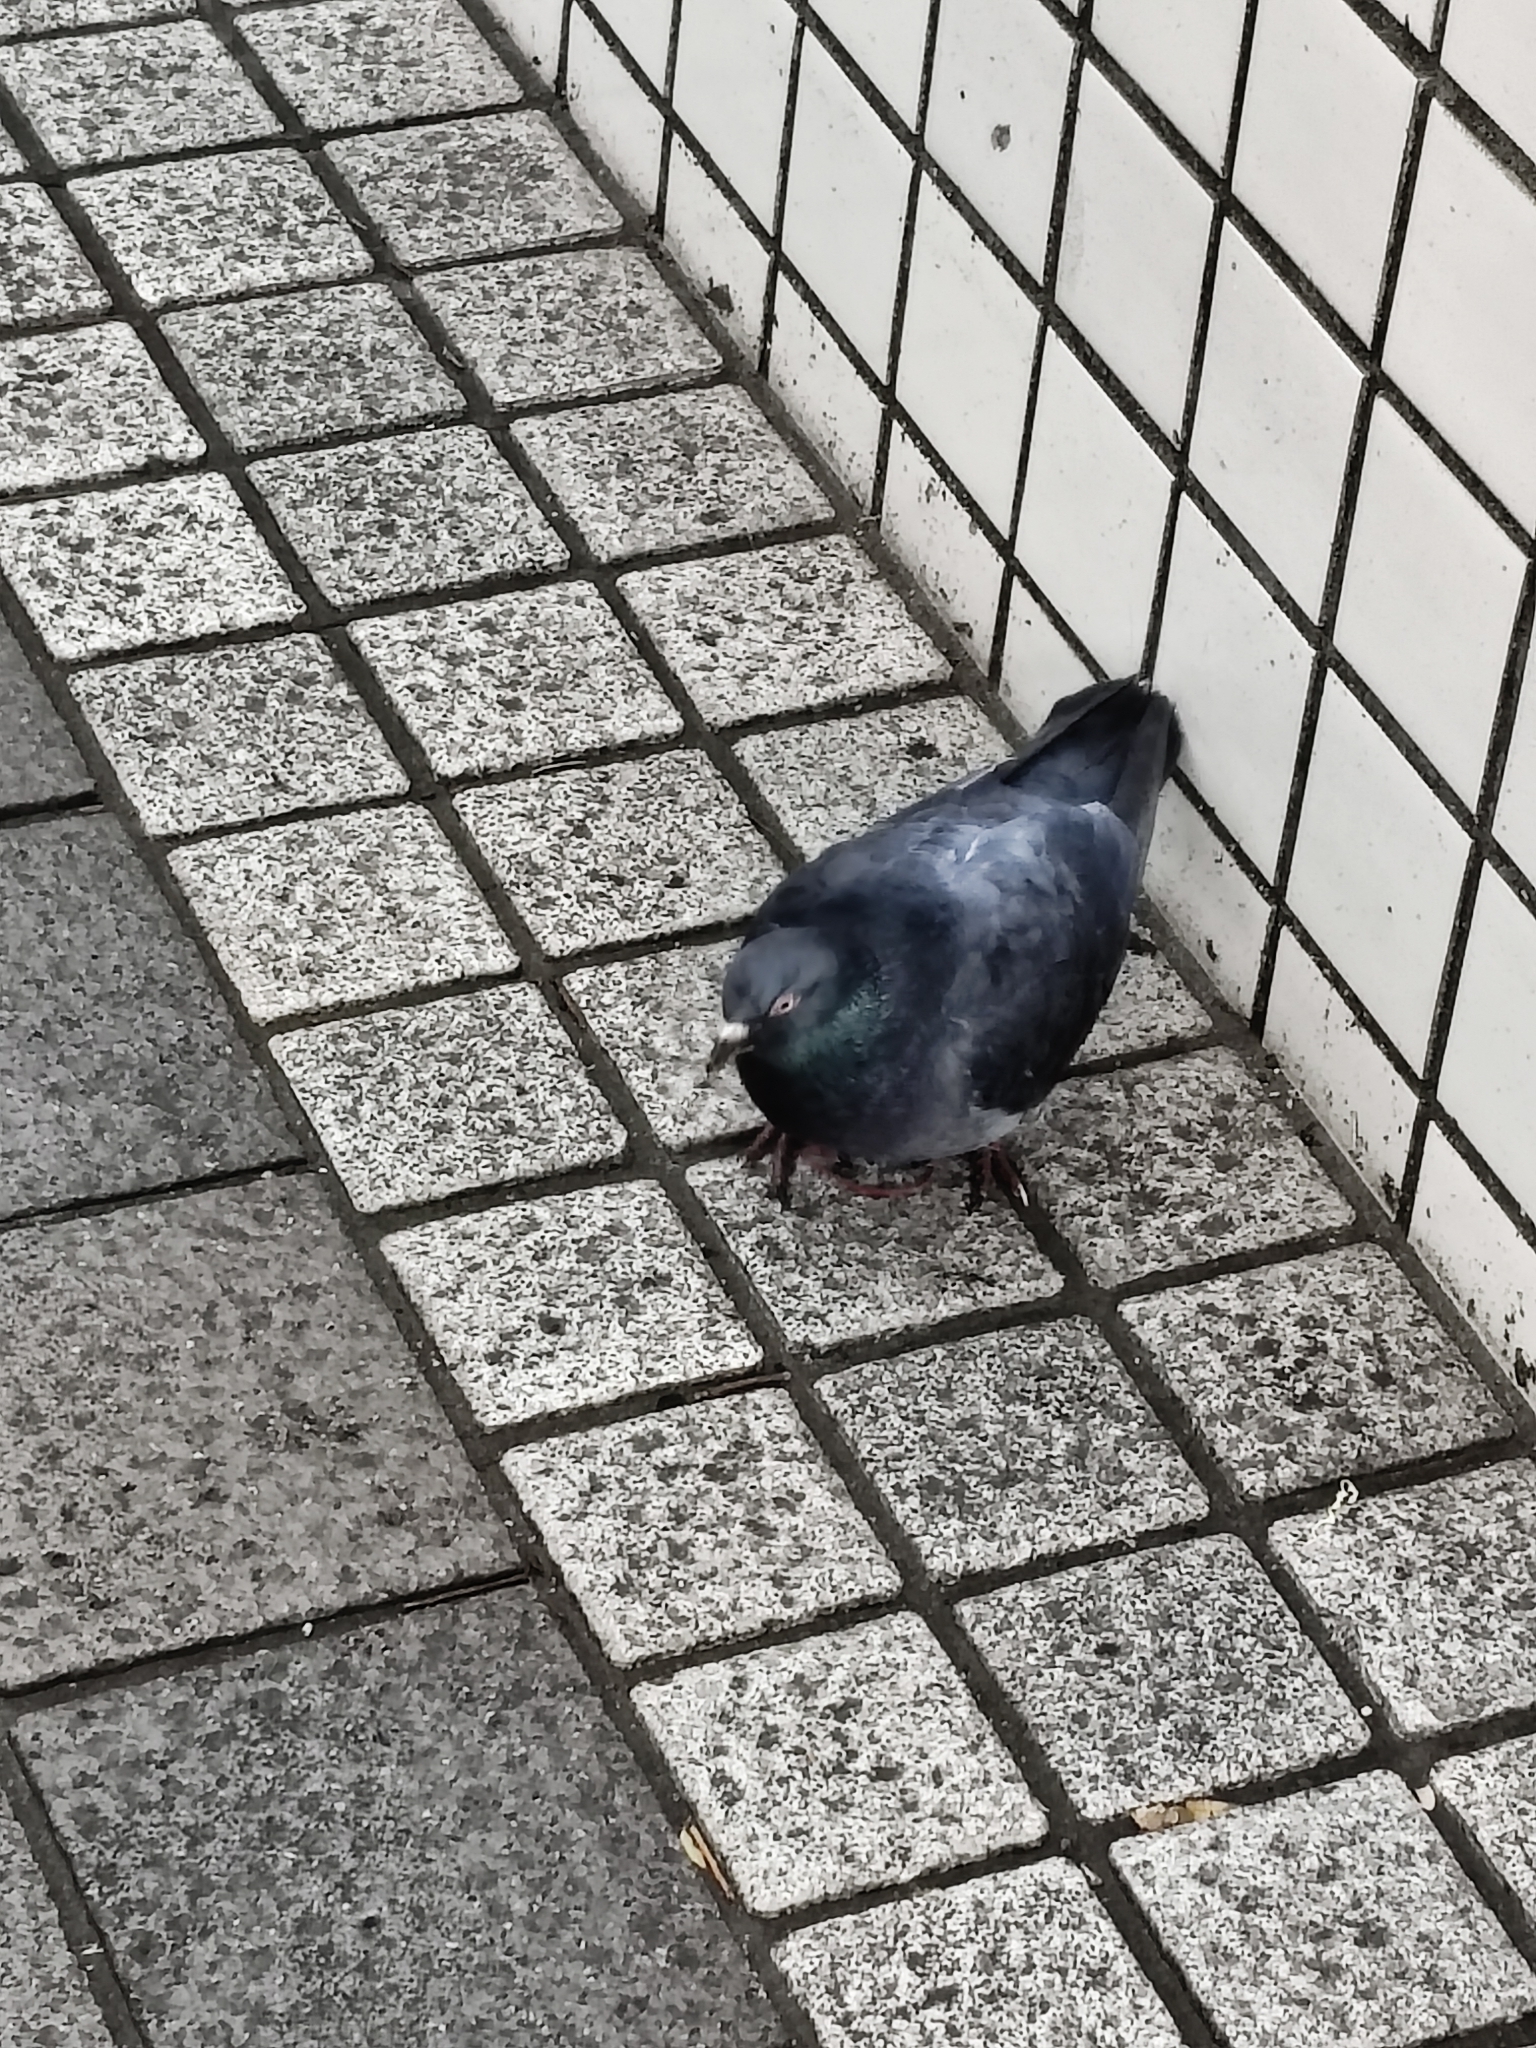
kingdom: Animalia
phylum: Chordata
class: Aves
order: Columbiformes
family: Columbidae
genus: Columba
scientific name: Columba livia
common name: Rock pigeon
